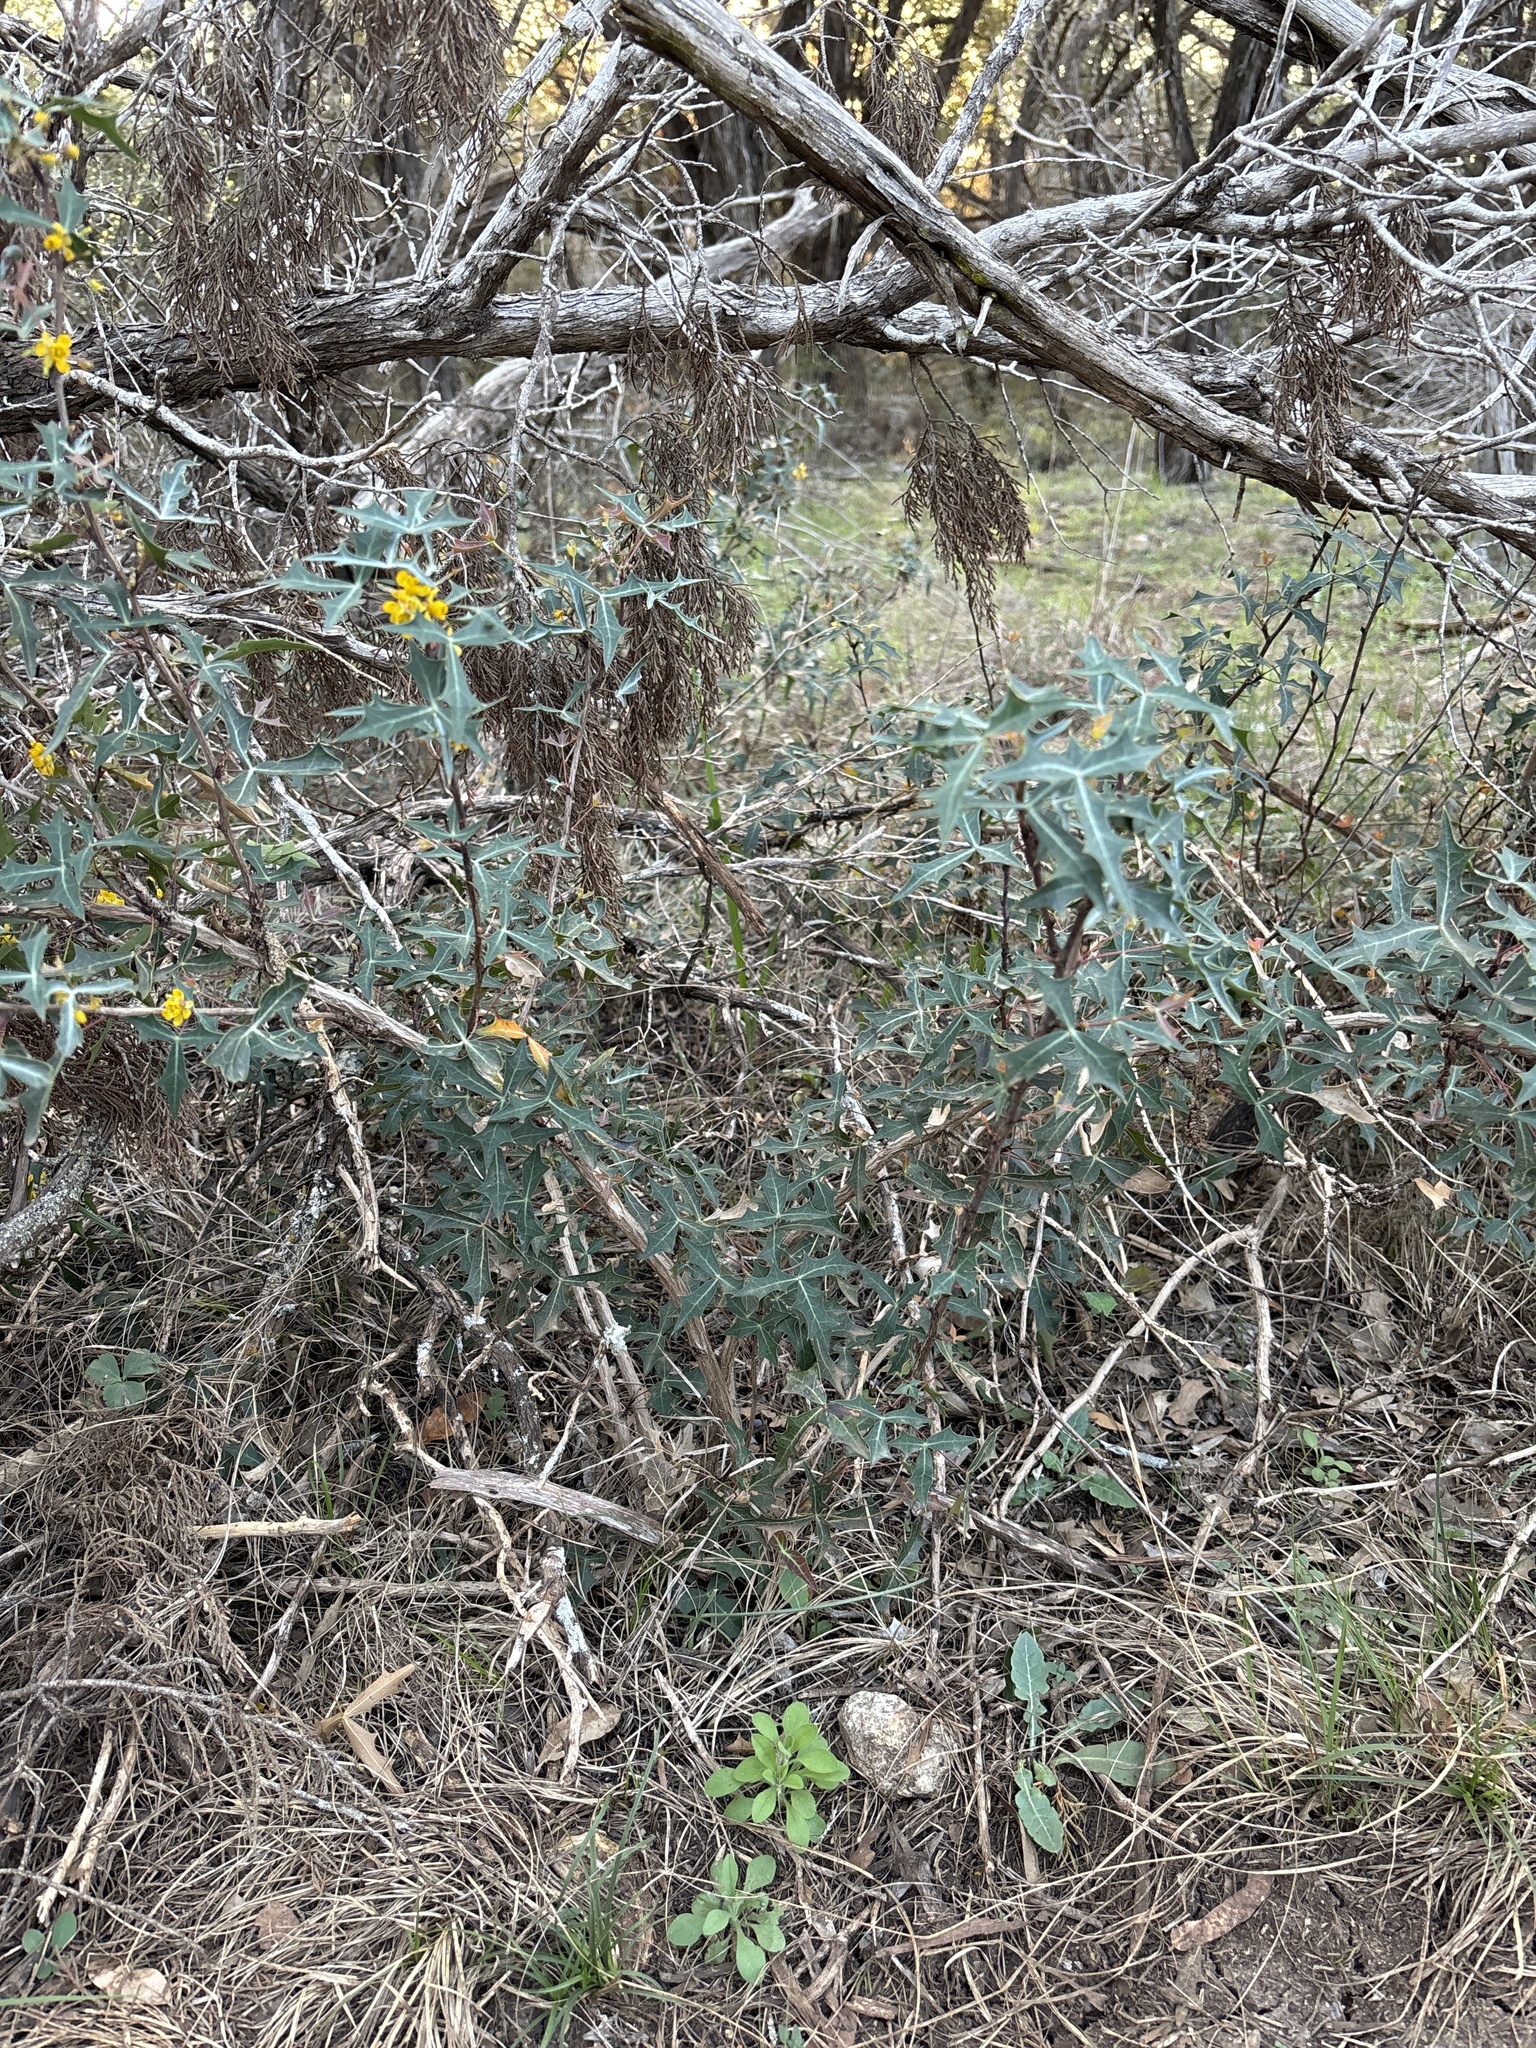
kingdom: Plantae
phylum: Tracheophyta
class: Magnoliopsida
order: Ranunculales
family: Berberidaceae
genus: Alloberberis
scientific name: Alloberberis trifoliolata
